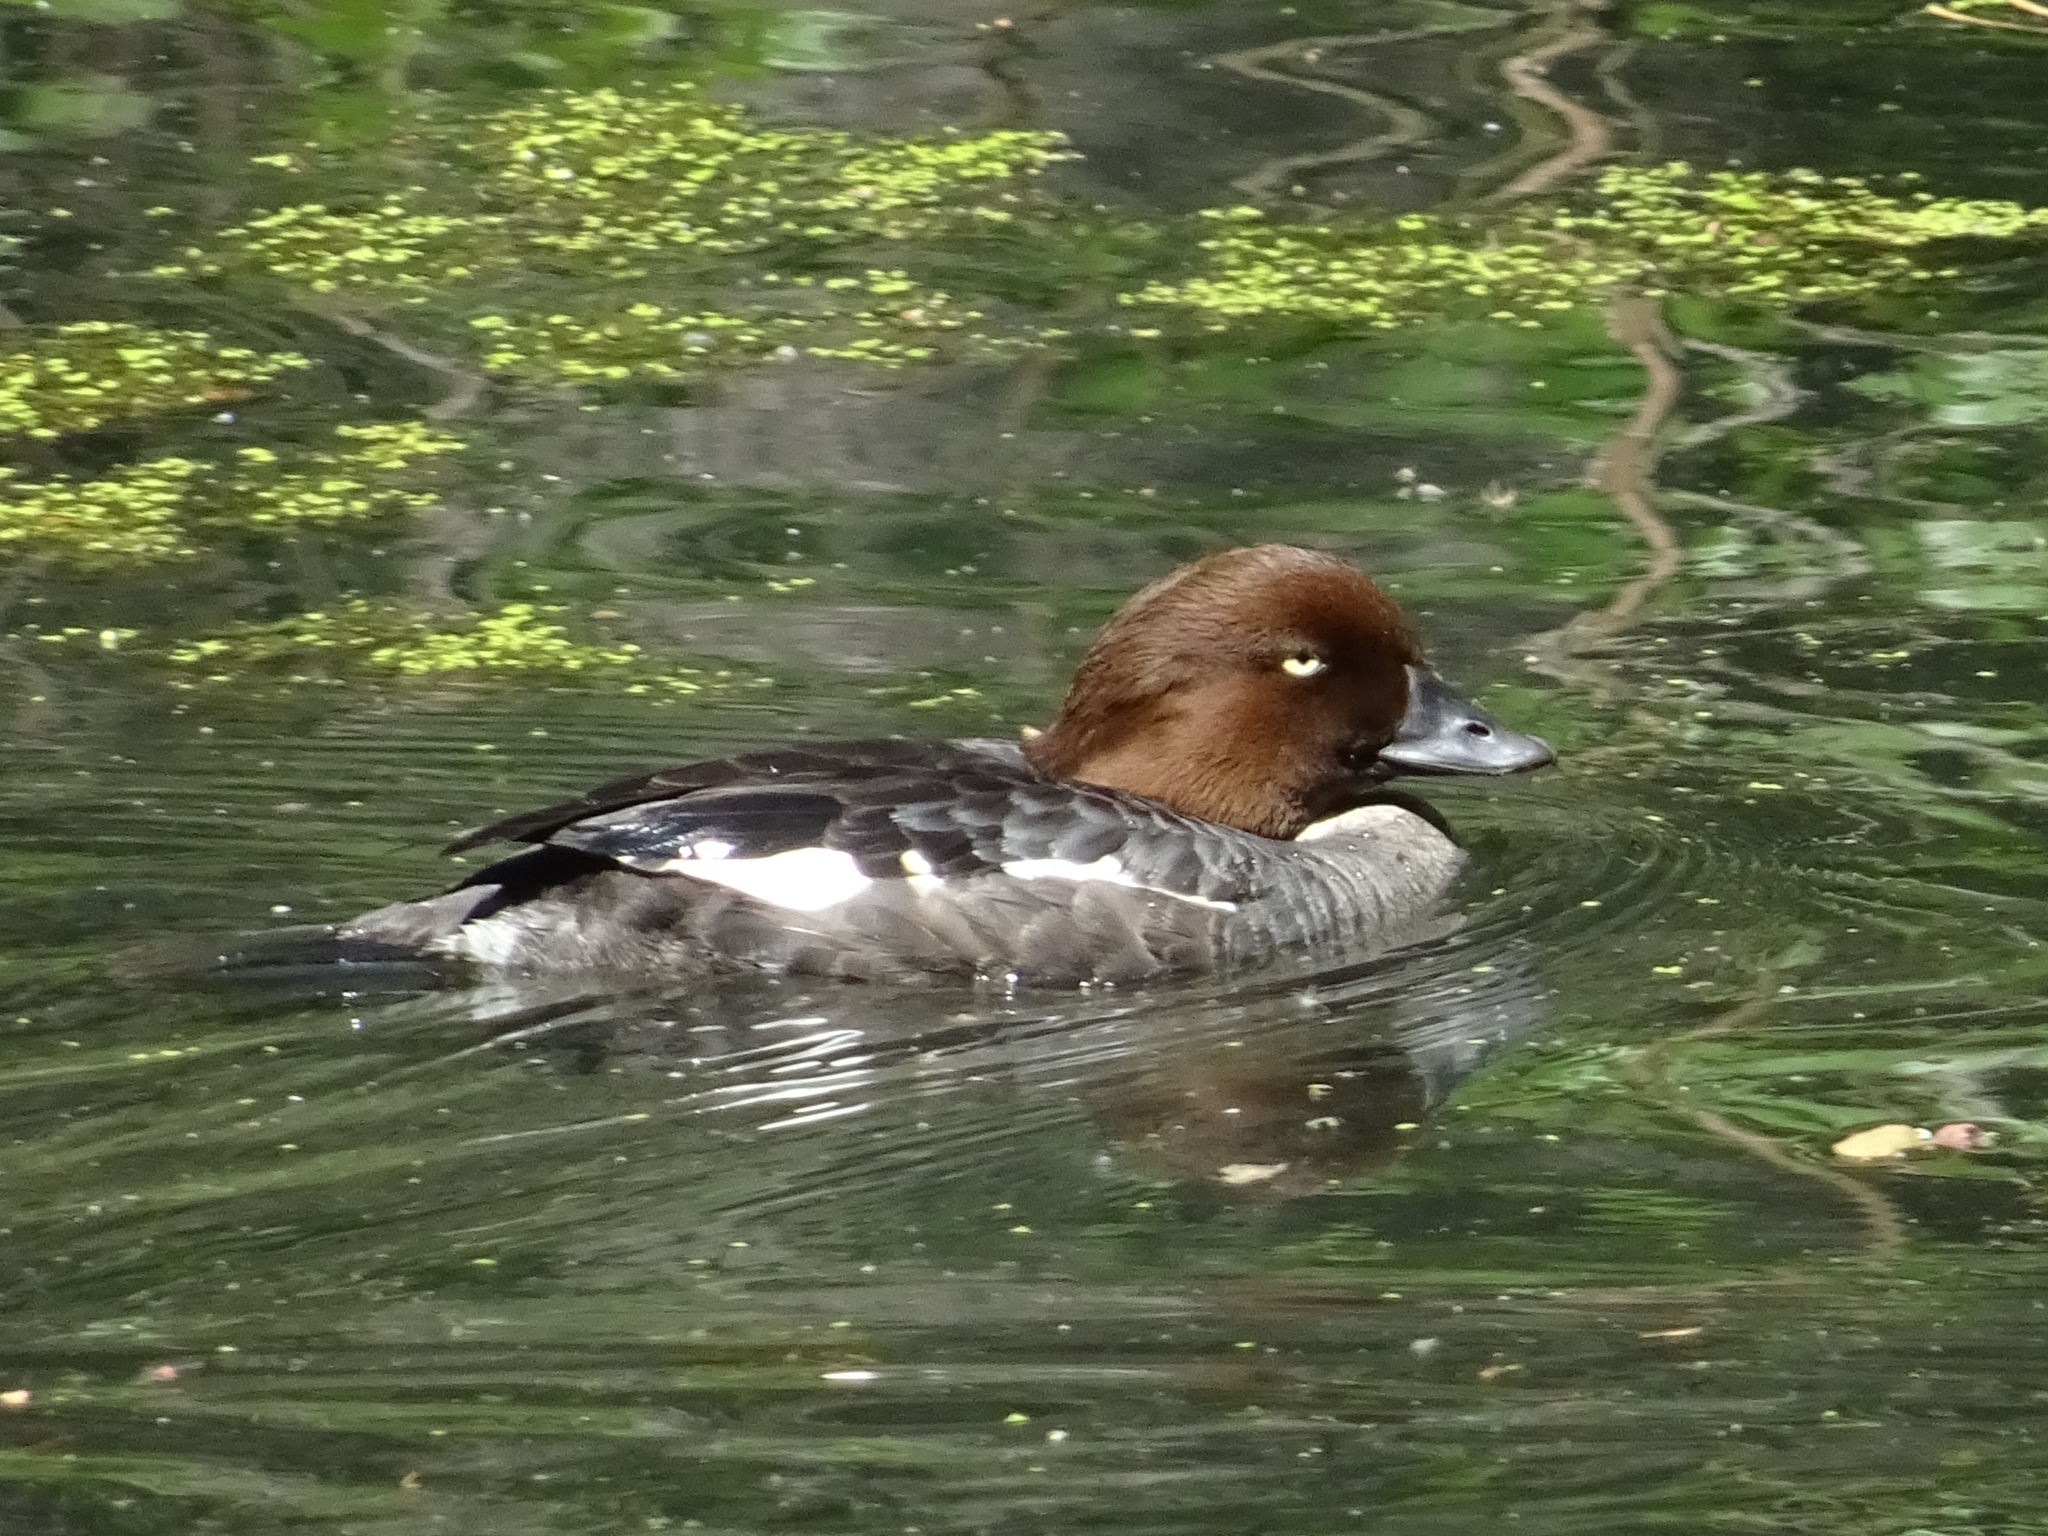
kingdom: Animalia
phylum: Chordata
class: Aves
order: Anseriformes
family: Anatidae
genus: Bucephala
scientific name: Bucephala clangula
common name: Common goldeneye
